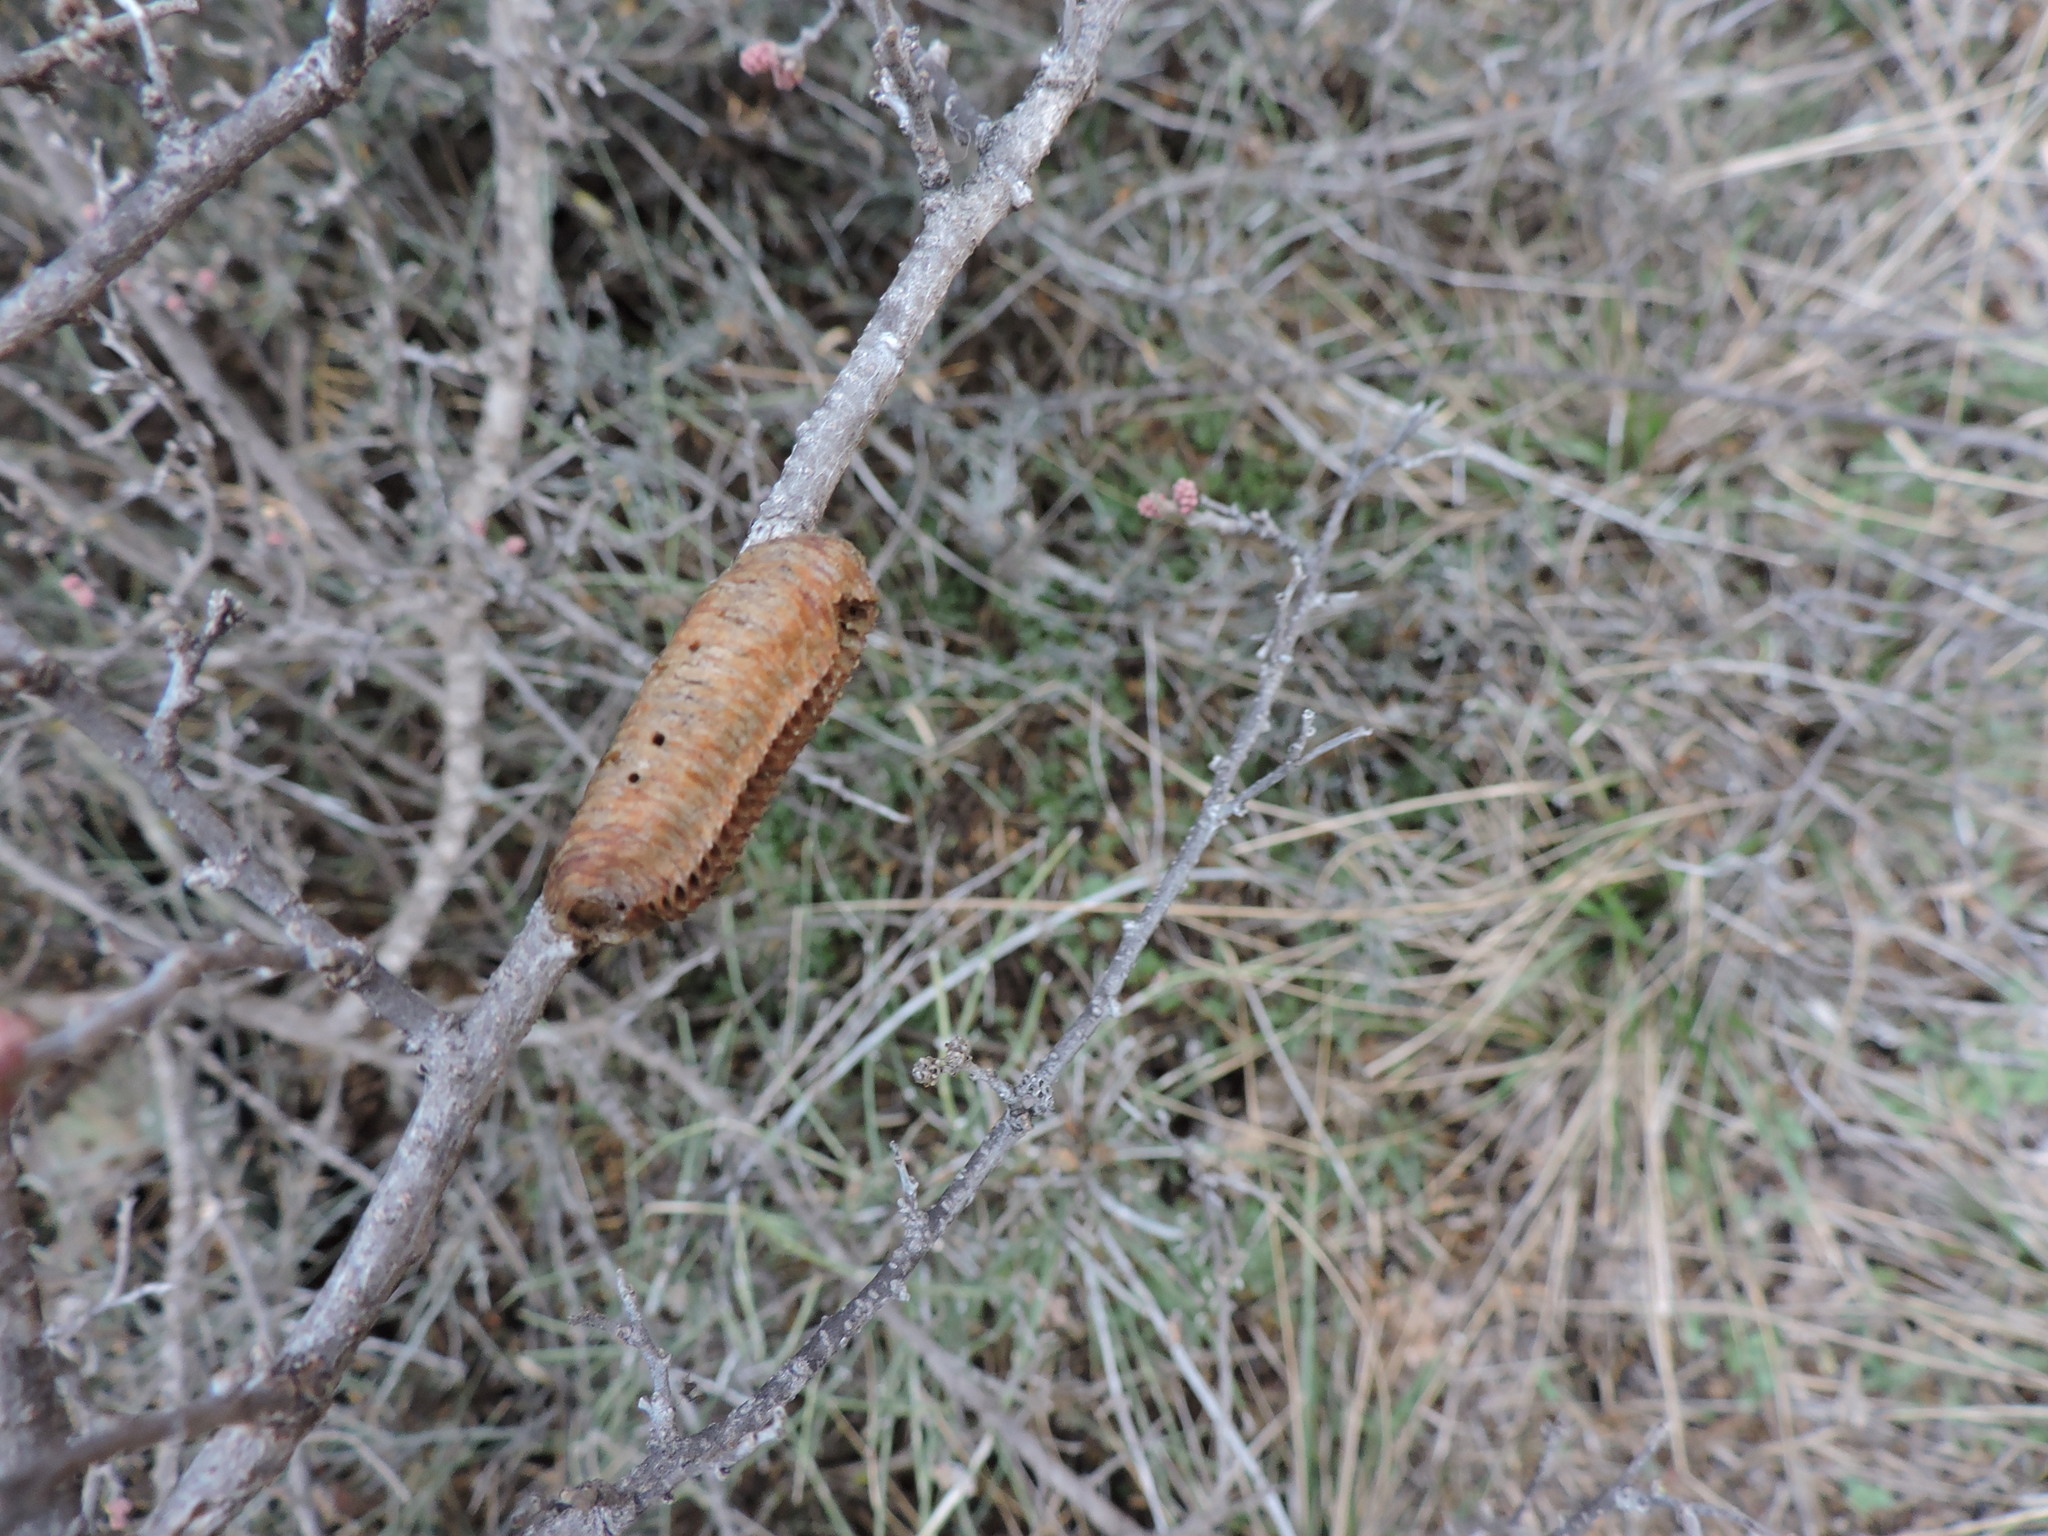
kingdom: Animalia
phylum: Arthropoda
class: Insecta
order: Mantodea
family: Mantidae
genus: Stagmomantis
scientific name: Stagmomantis carolina
